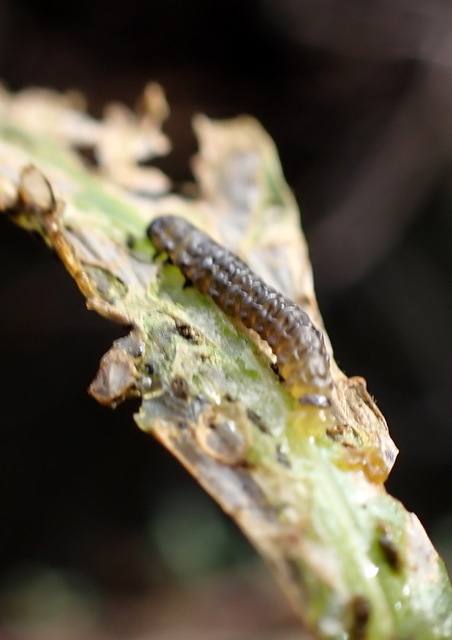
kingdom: Animalia
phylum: Arthropoda
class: Insecta
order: Coleoptera
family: Chrysomelidae
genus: Agasicles
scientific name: Agasicles hygrophila
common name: Alligatorweed flea beetle
